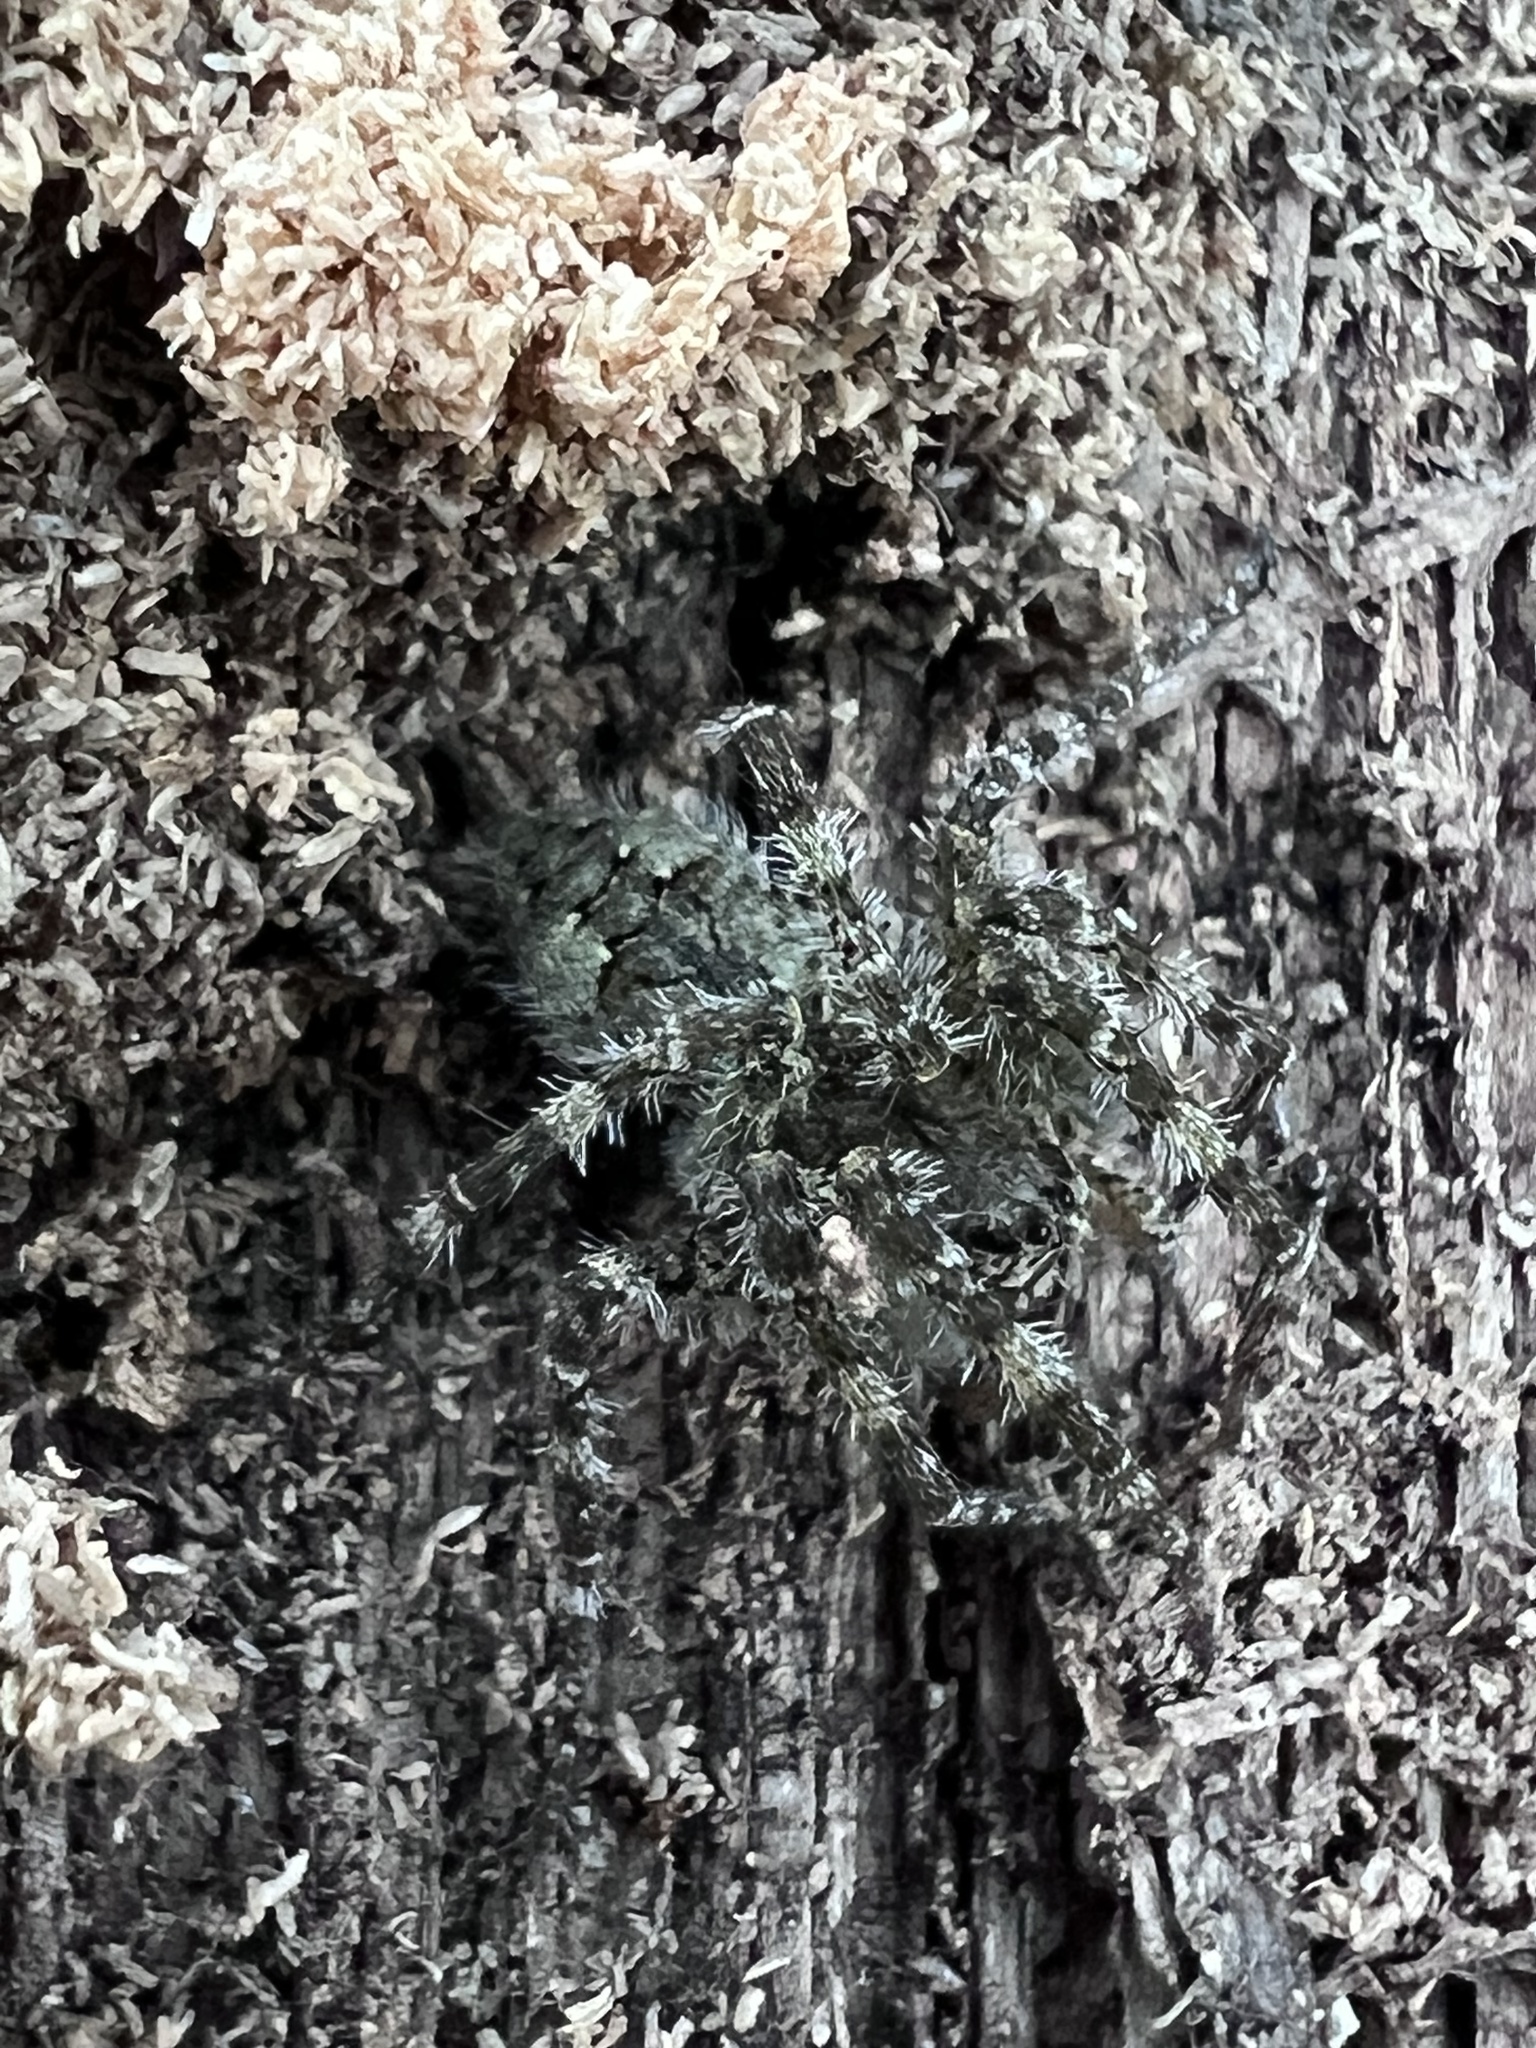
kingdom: Animalia
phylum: Arthropoda
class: Arachnida
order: Araneae
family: Pisauridae
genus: Dolomedes
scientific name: Dolomedes albineus
